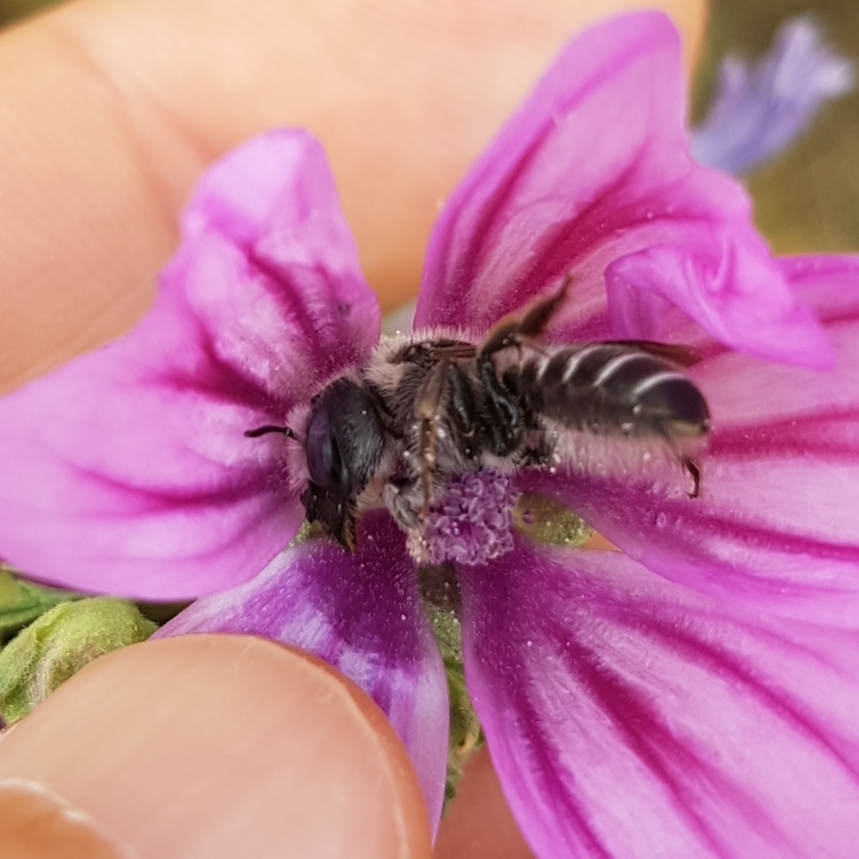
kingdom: Animalia
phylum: Arthropoda
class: Insecta
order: Hymenoptera
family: Megachilidae
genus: Hoplitis
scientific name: Hoplitis cristatula
